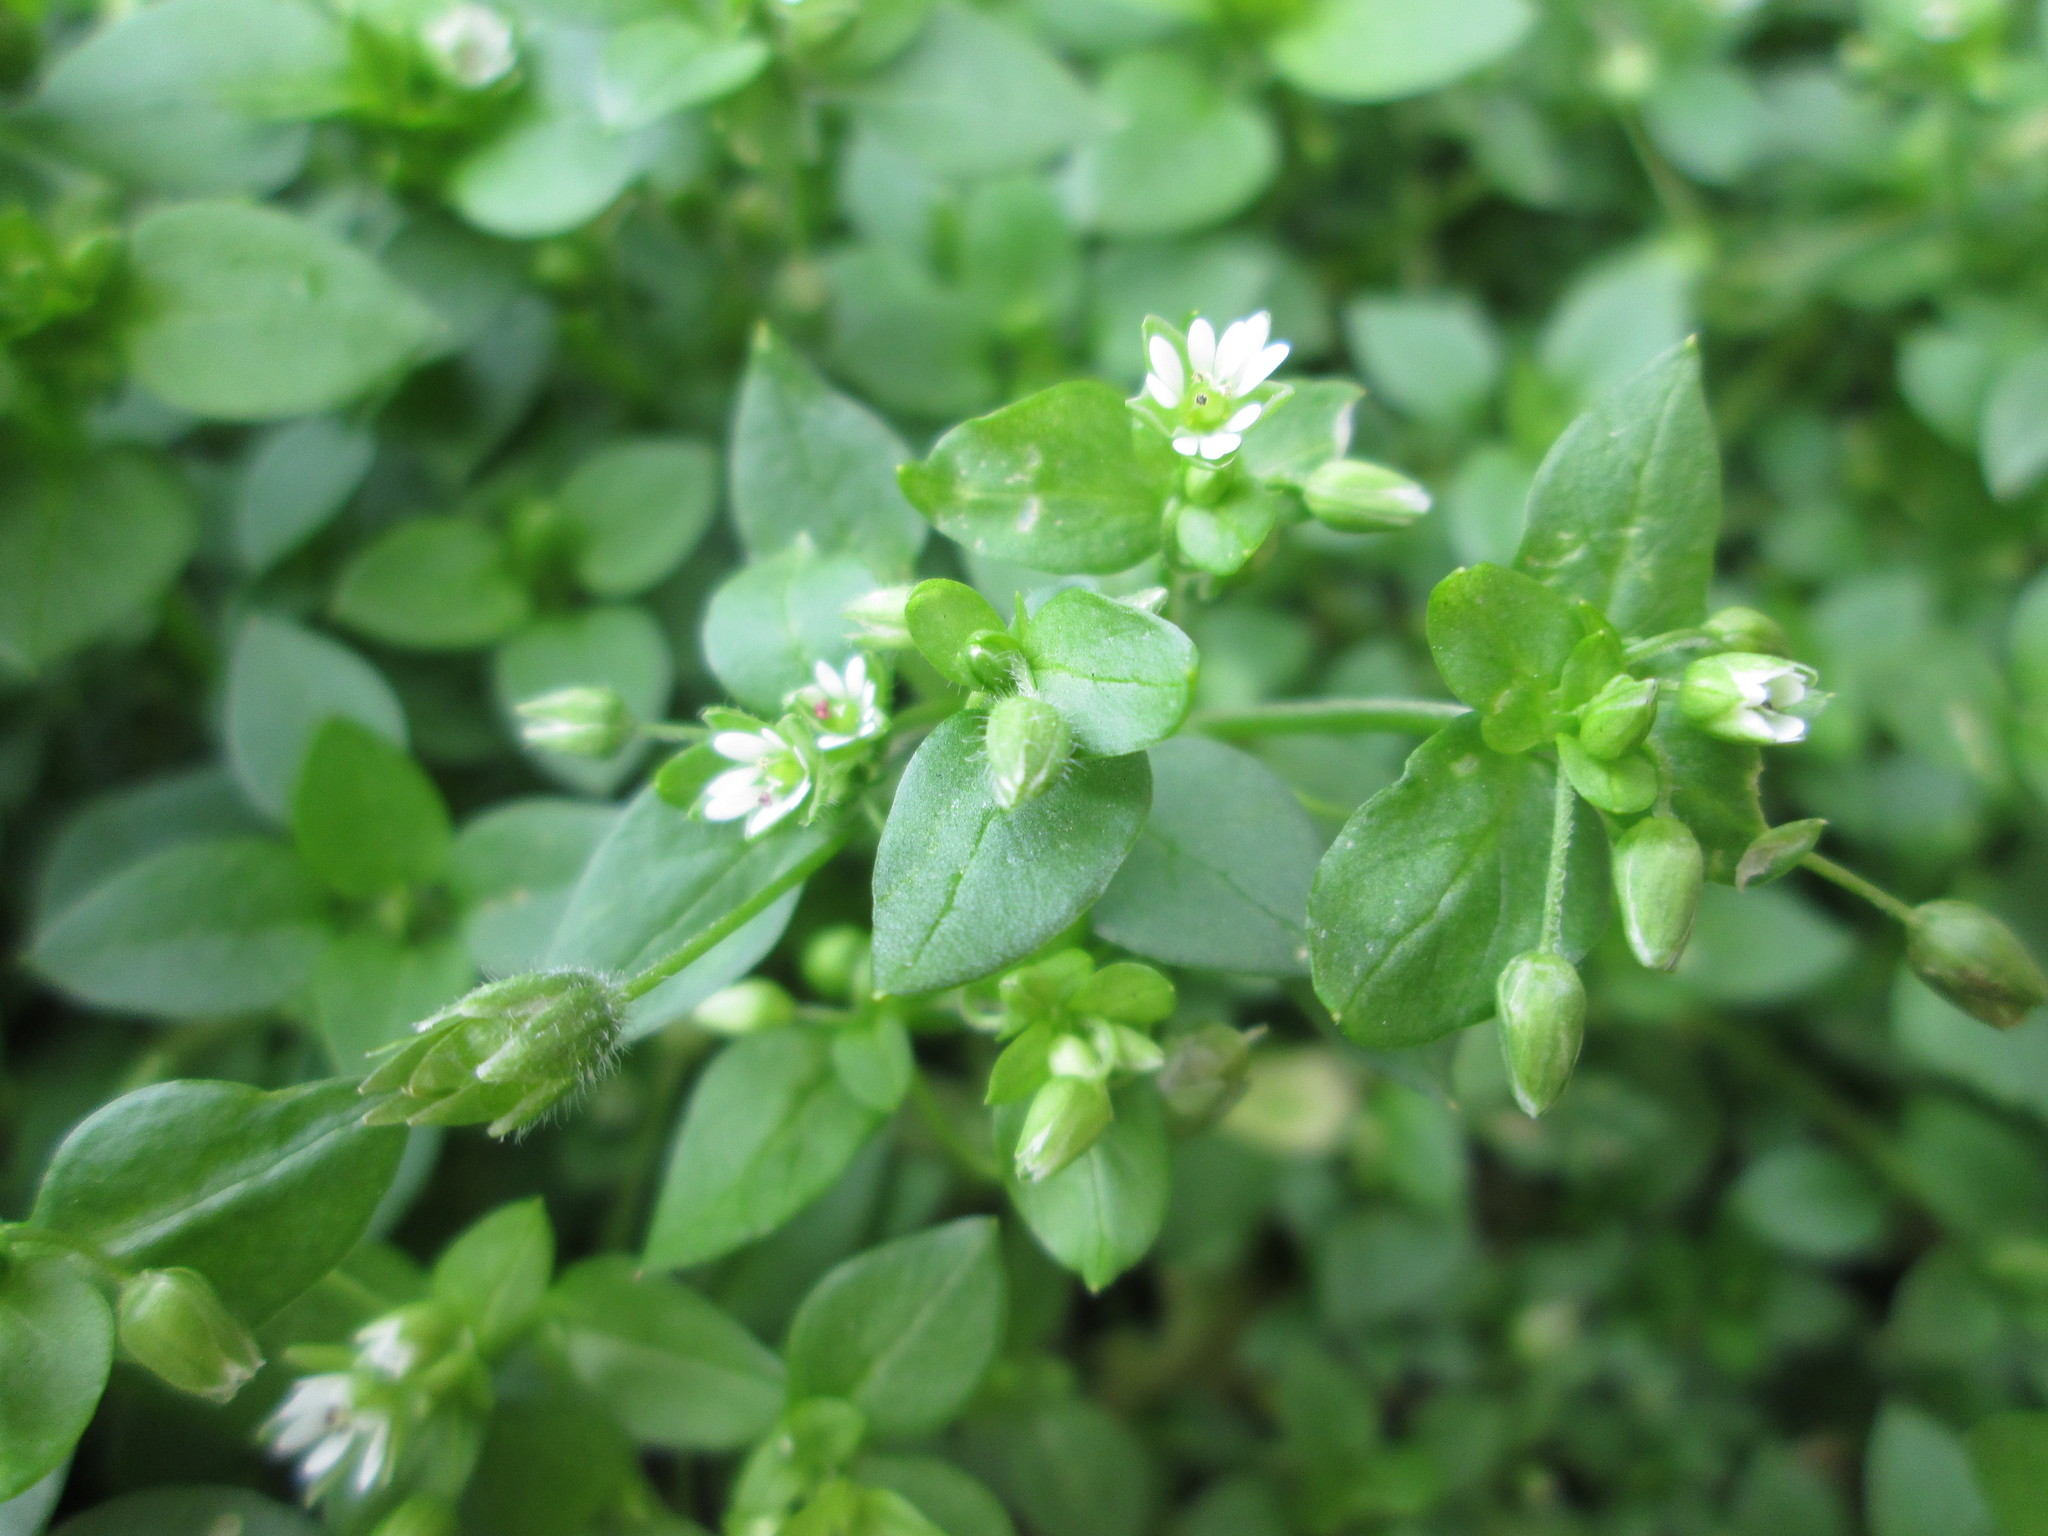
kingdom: Plantae
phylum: Tracheophyta
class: Magnoliopsida
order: Caryophyllales
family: Caryophyllaceae
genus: Stellaria
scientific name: Stellaria media
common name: Common chickweed
